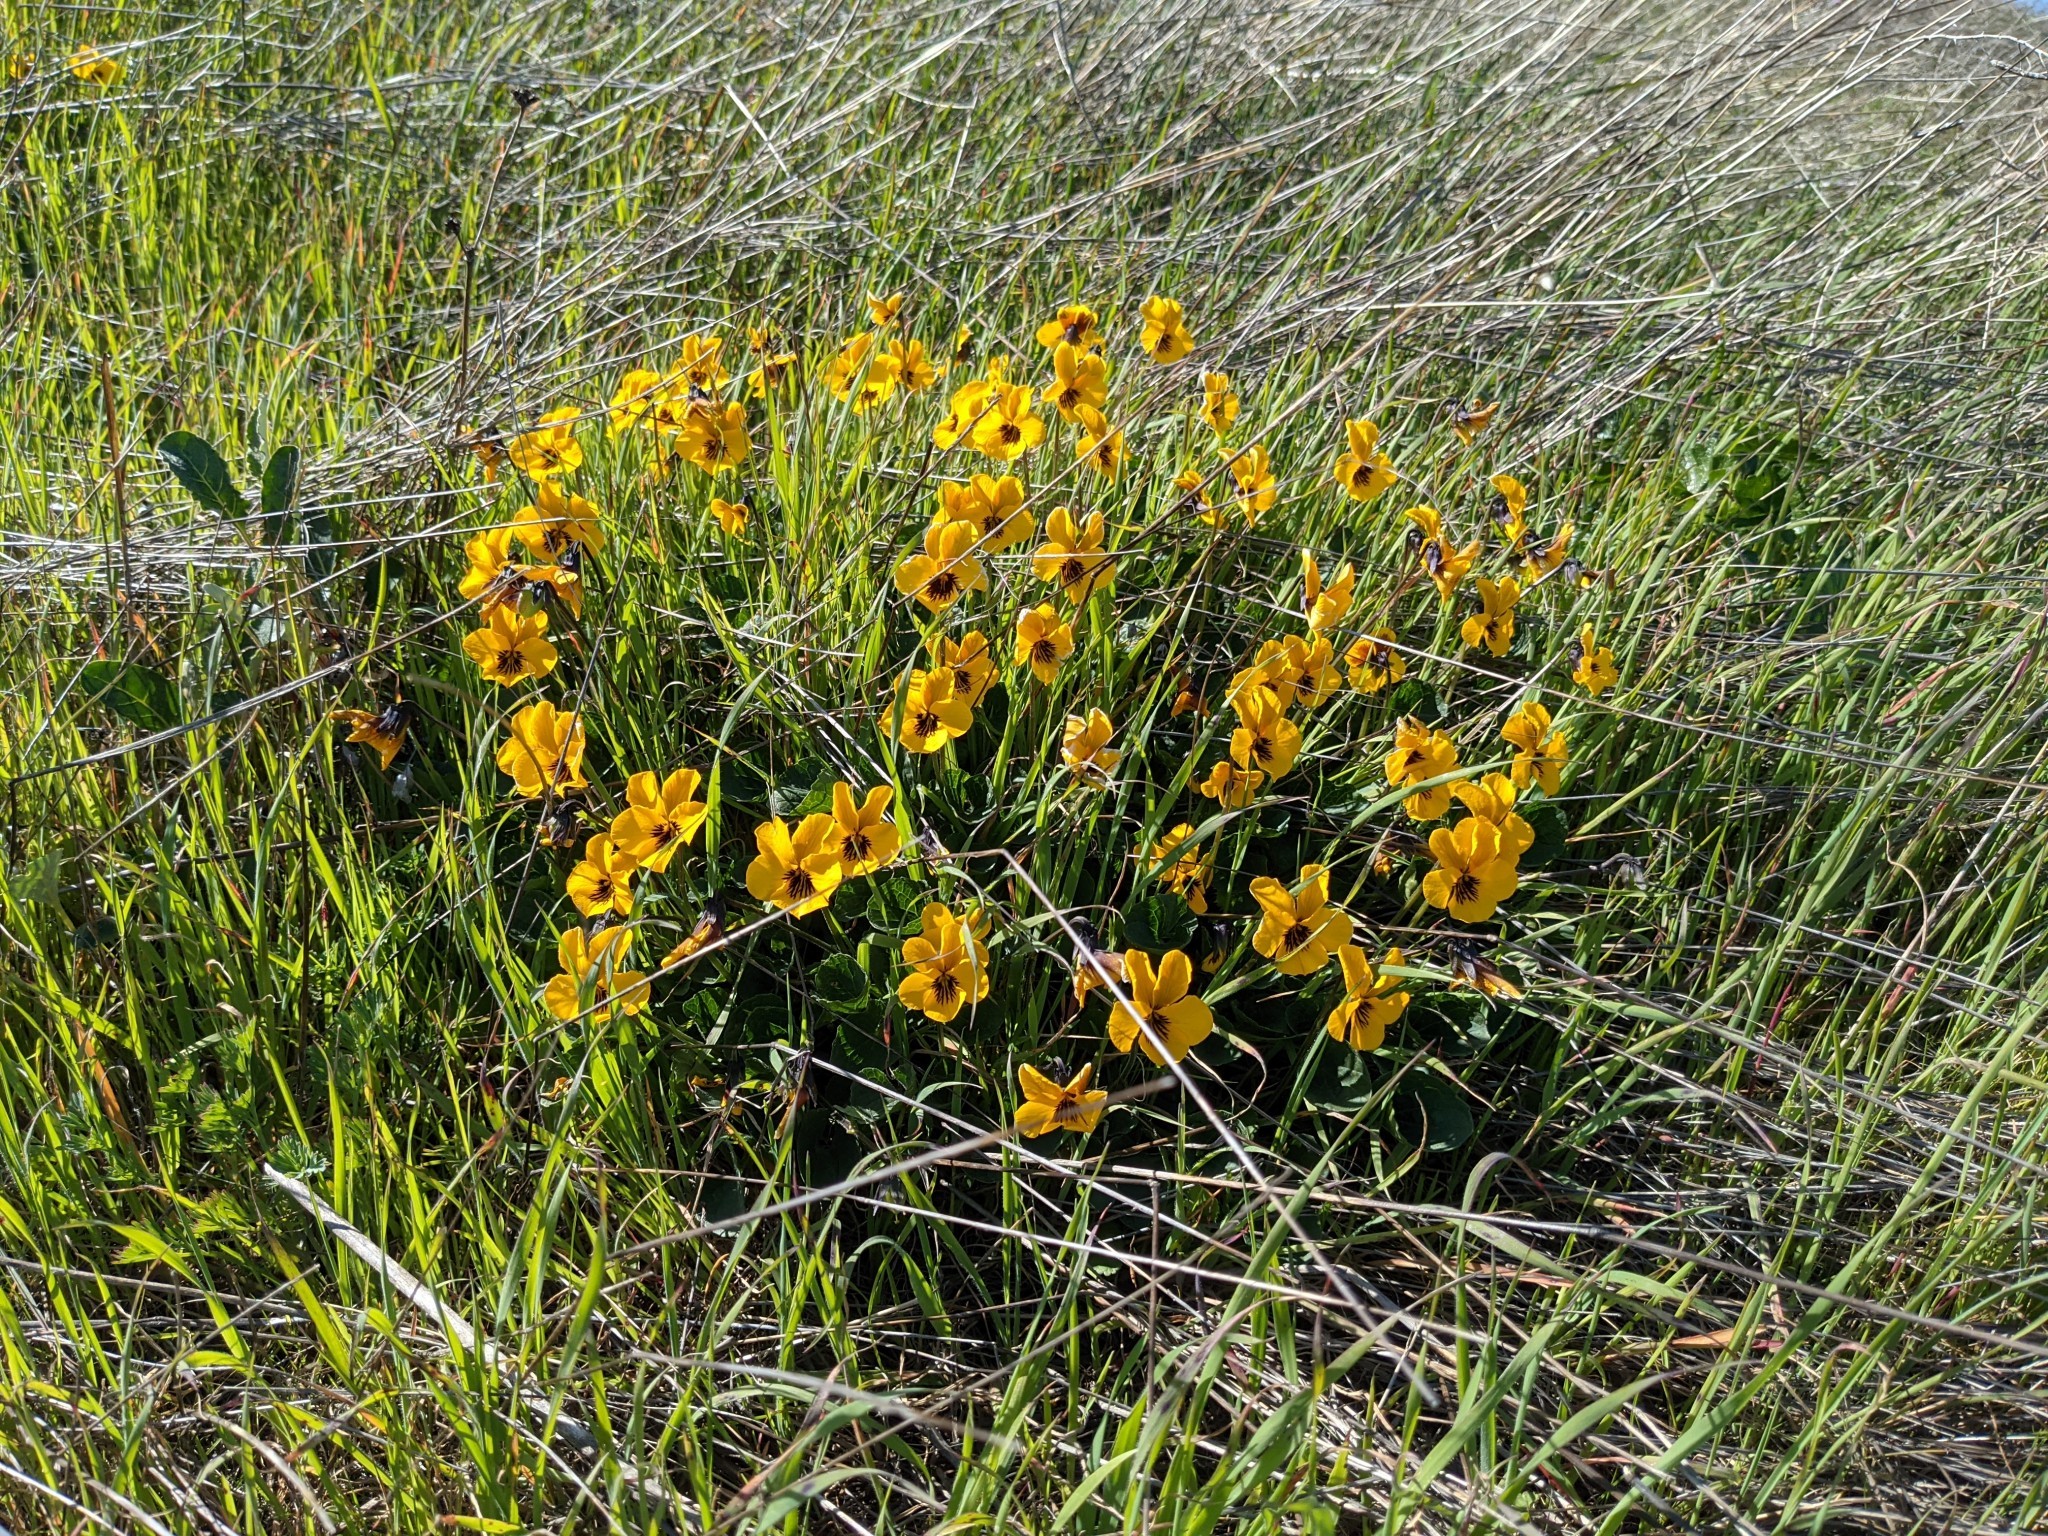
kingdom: Plantae
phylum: Tracheophyta
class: Magnoliopsida
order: Malpighiales
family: Violaceae
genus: Viola
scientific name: Viola pedunculata
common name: California golden violet
